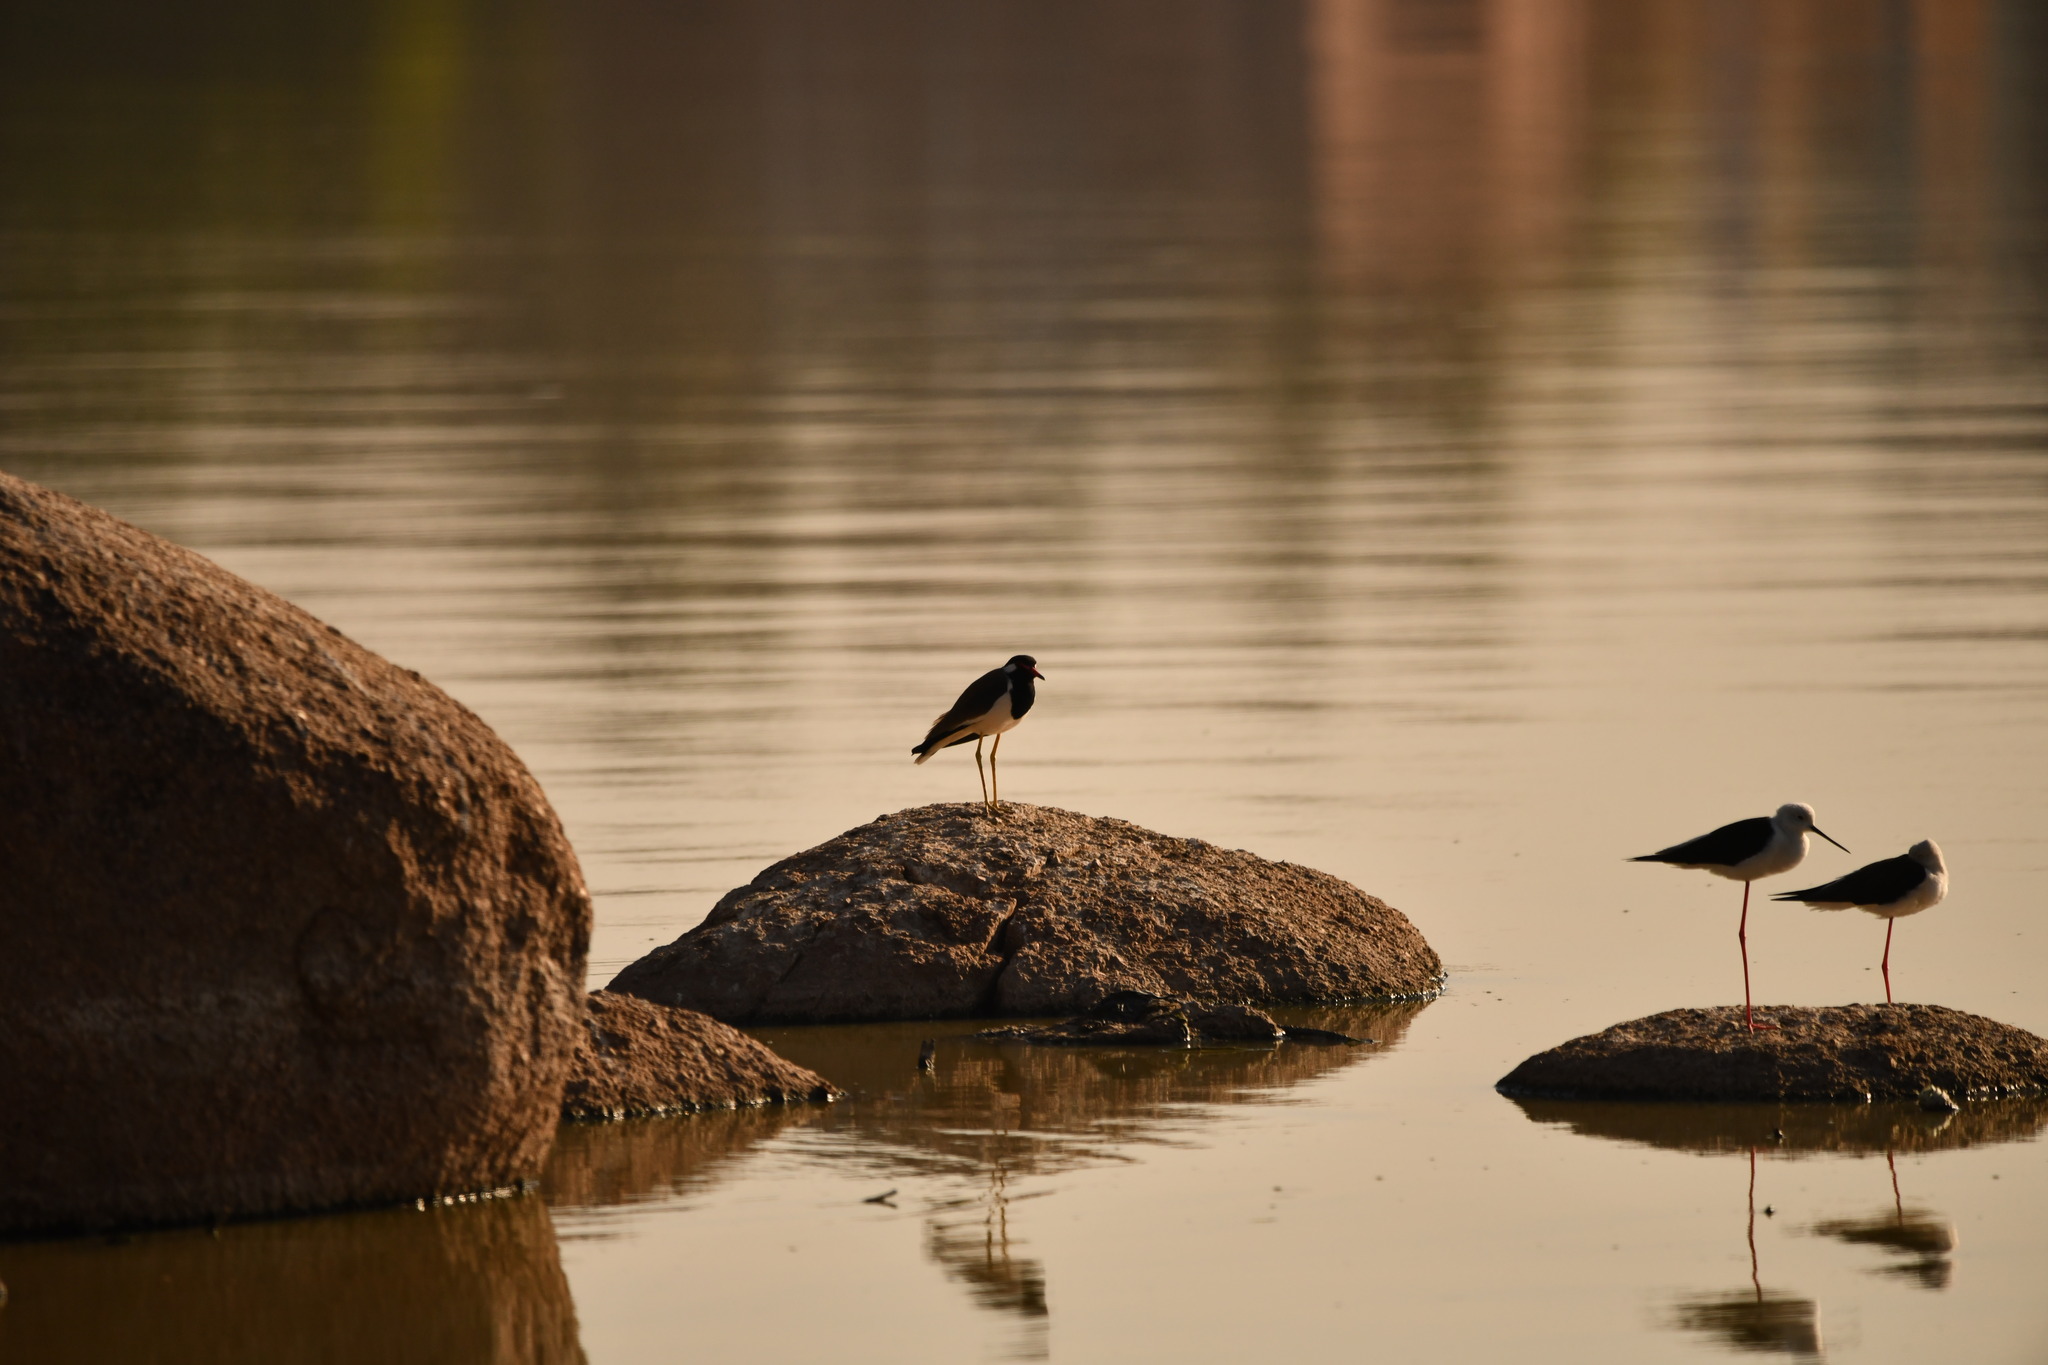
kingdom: Animalia
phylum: Chordata
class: Aves
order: Charadriiformes
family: Charadriidae
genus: Vanellus
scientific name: Vanellus indicus
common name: Red-wattled lapwing
